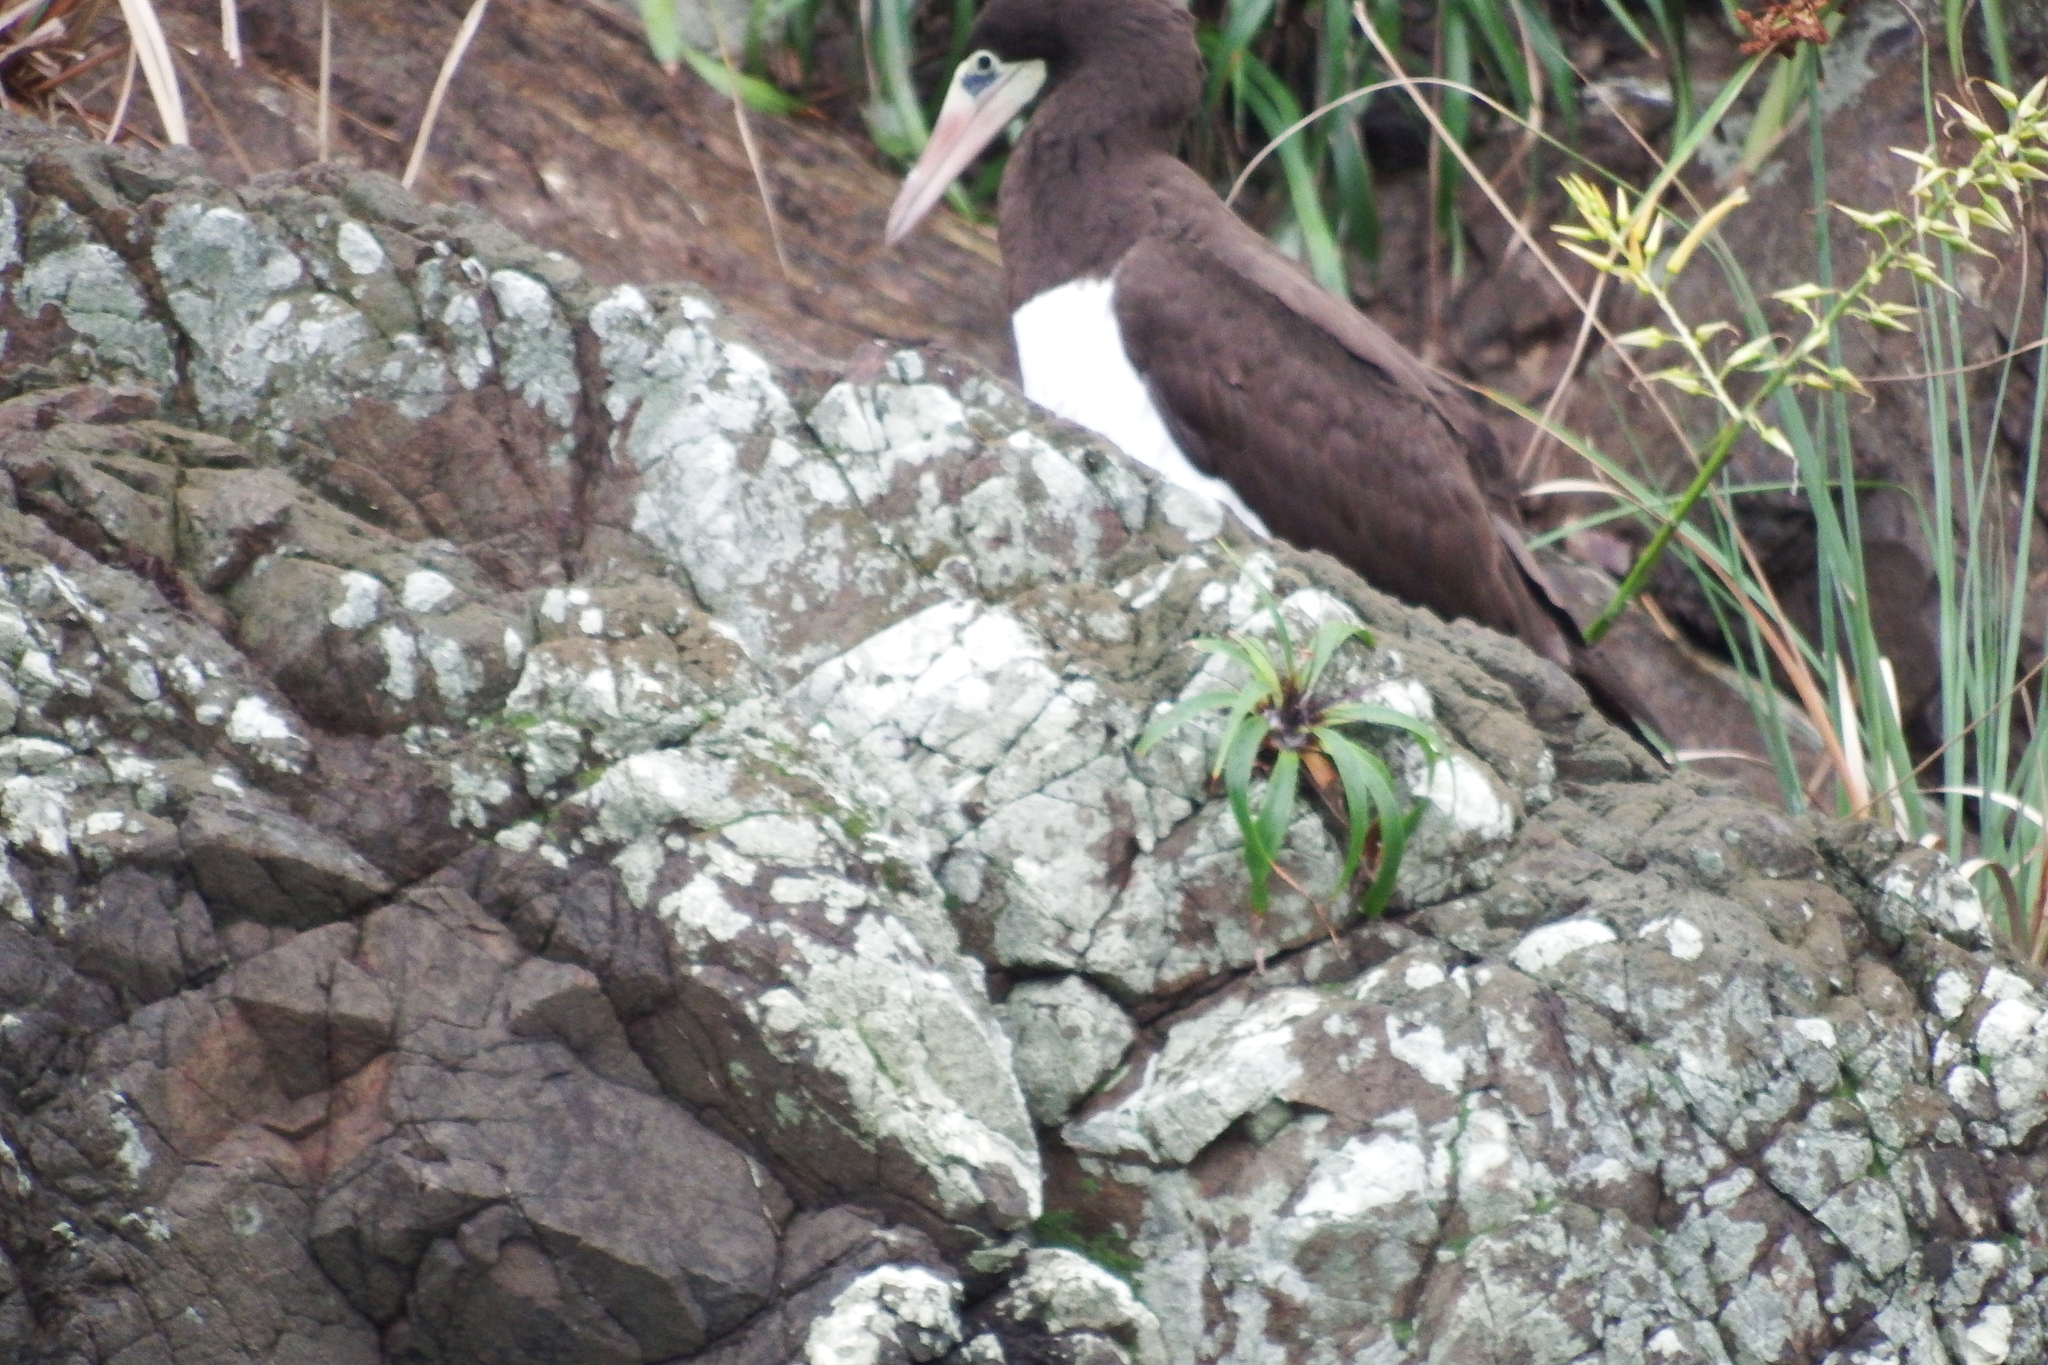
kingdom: Animalia
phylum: Chordata
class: Aves
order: Suliformes
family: Sulidae
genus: Sula
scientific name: Sula leucogaster
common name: Brown booby
